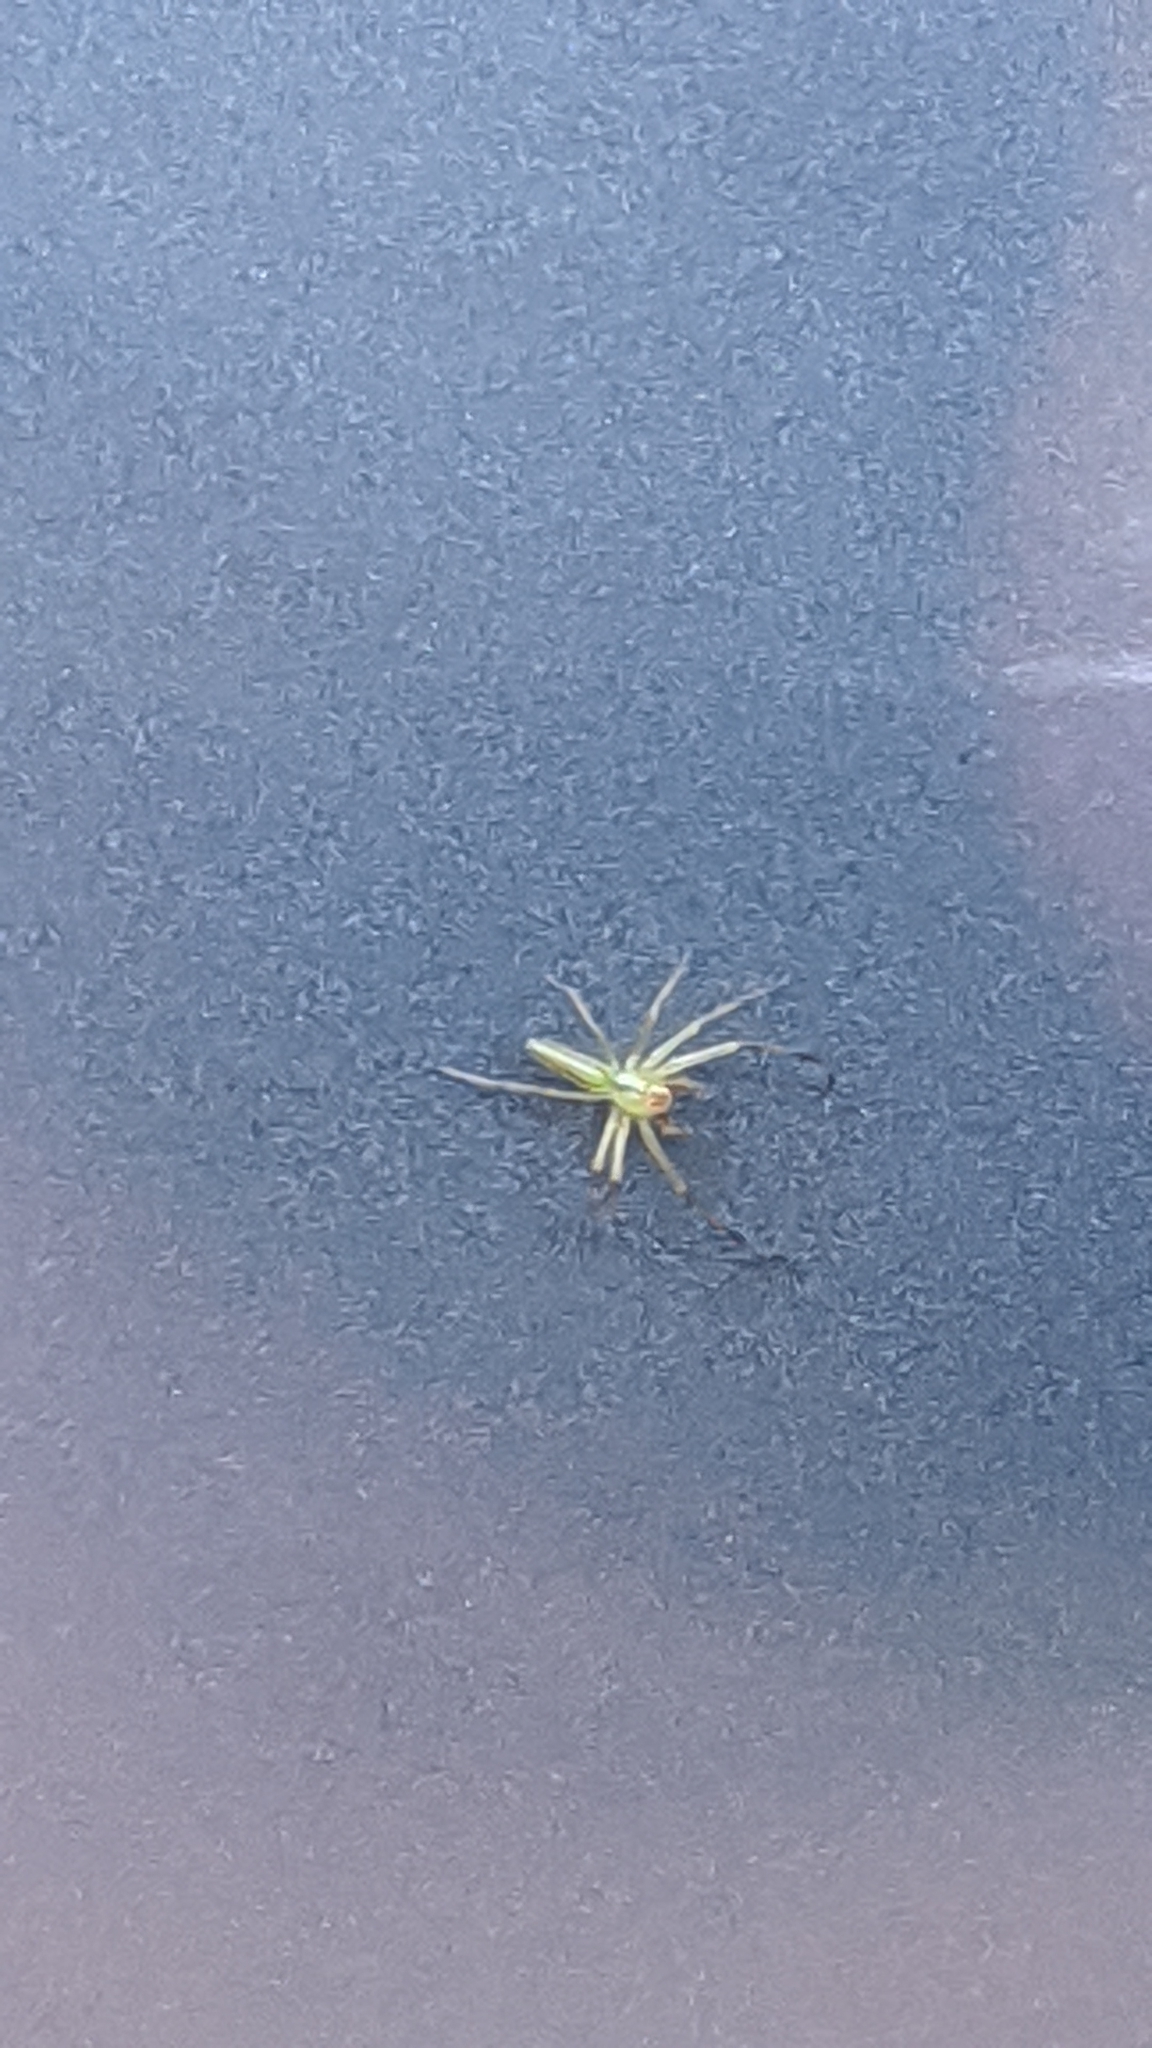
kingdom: Animalia
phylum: Arthropoda
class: Arachnida
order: Araneae
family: Salticidae
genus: Lyssomanes
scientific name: Lyssomanes viridis
